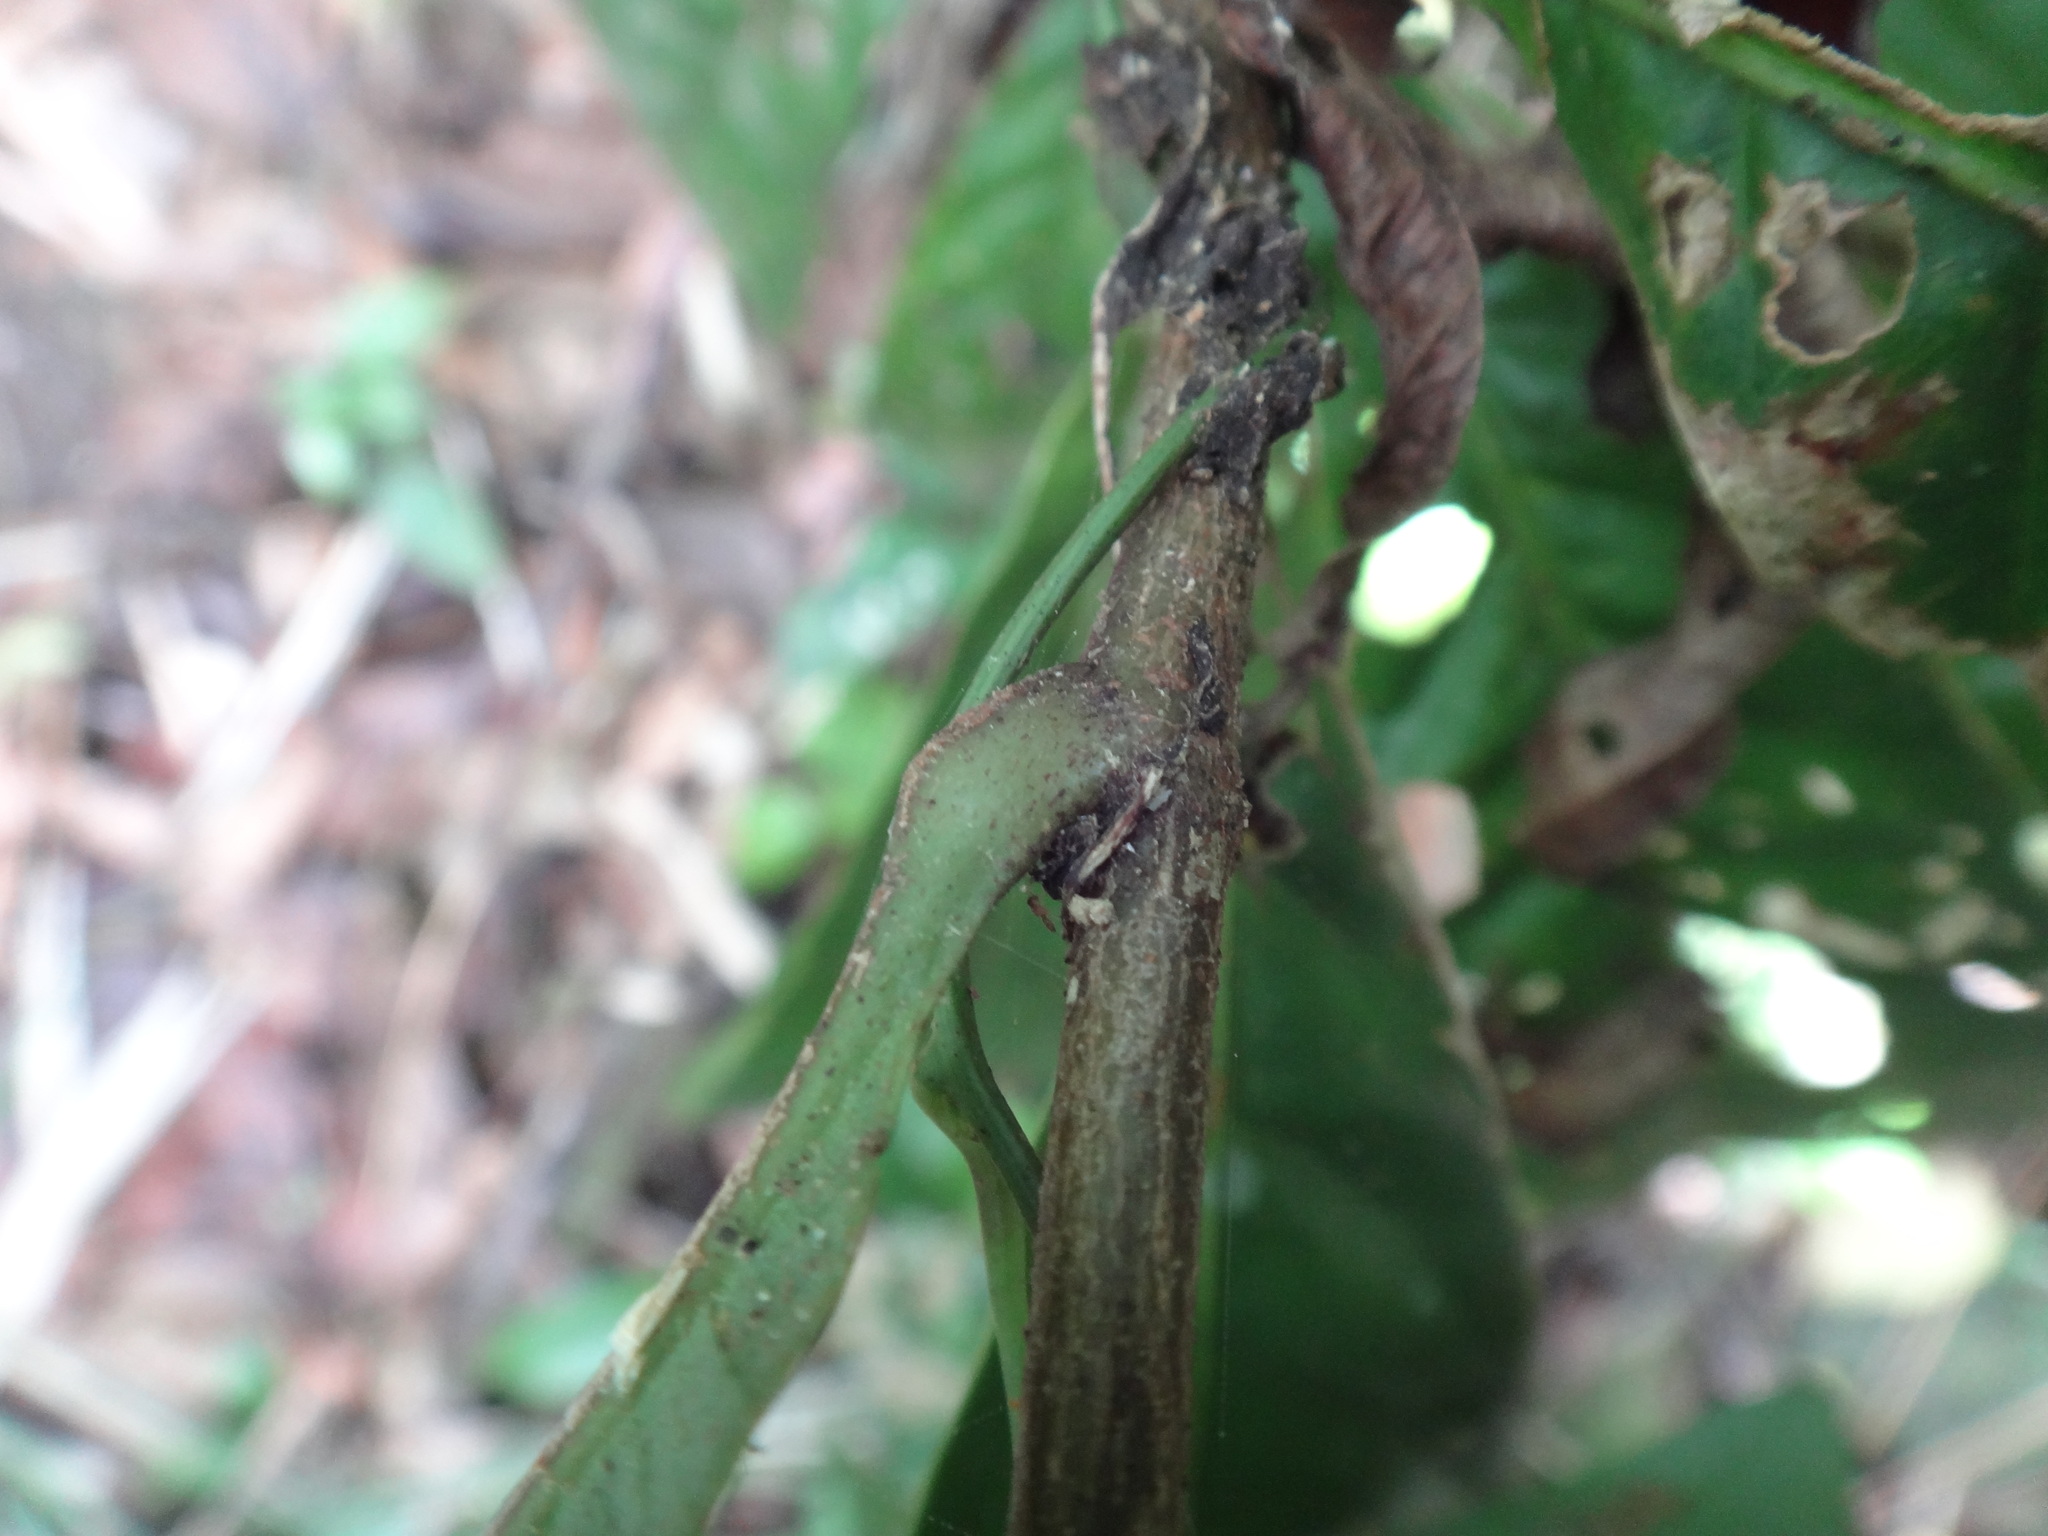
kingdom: Plantae
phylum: Tracheophyta
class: Magnoliopsida
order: Proteales
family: Proteaceae
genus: Helicia
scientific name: Helicia formosana
